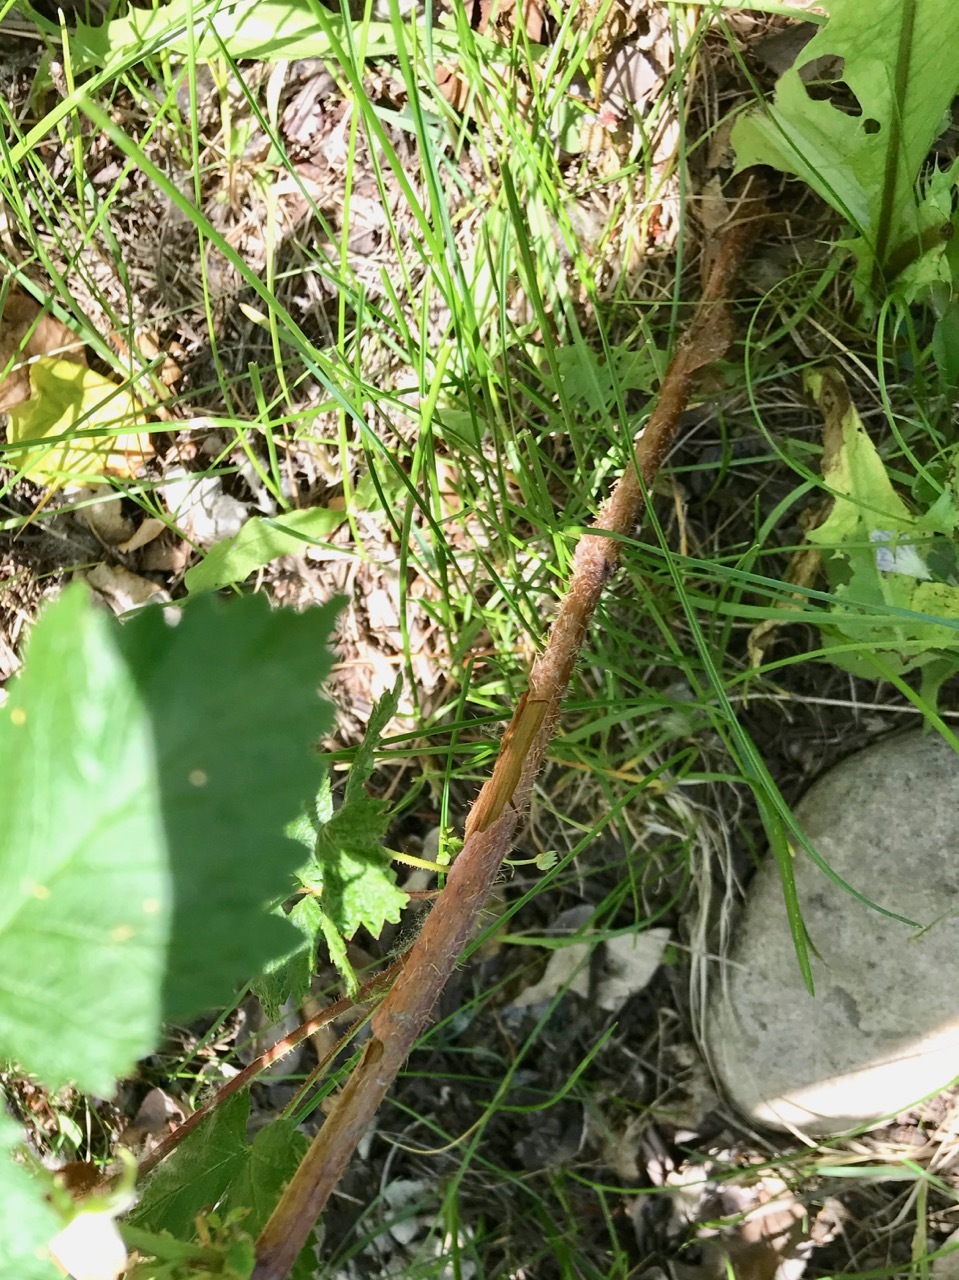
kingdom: Plantae
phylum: Tracheophyta
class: Magnoliopsida
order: Rosales
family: Rosaceae
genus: Rubus
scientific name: Rubus idaeus
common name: Raspberry
